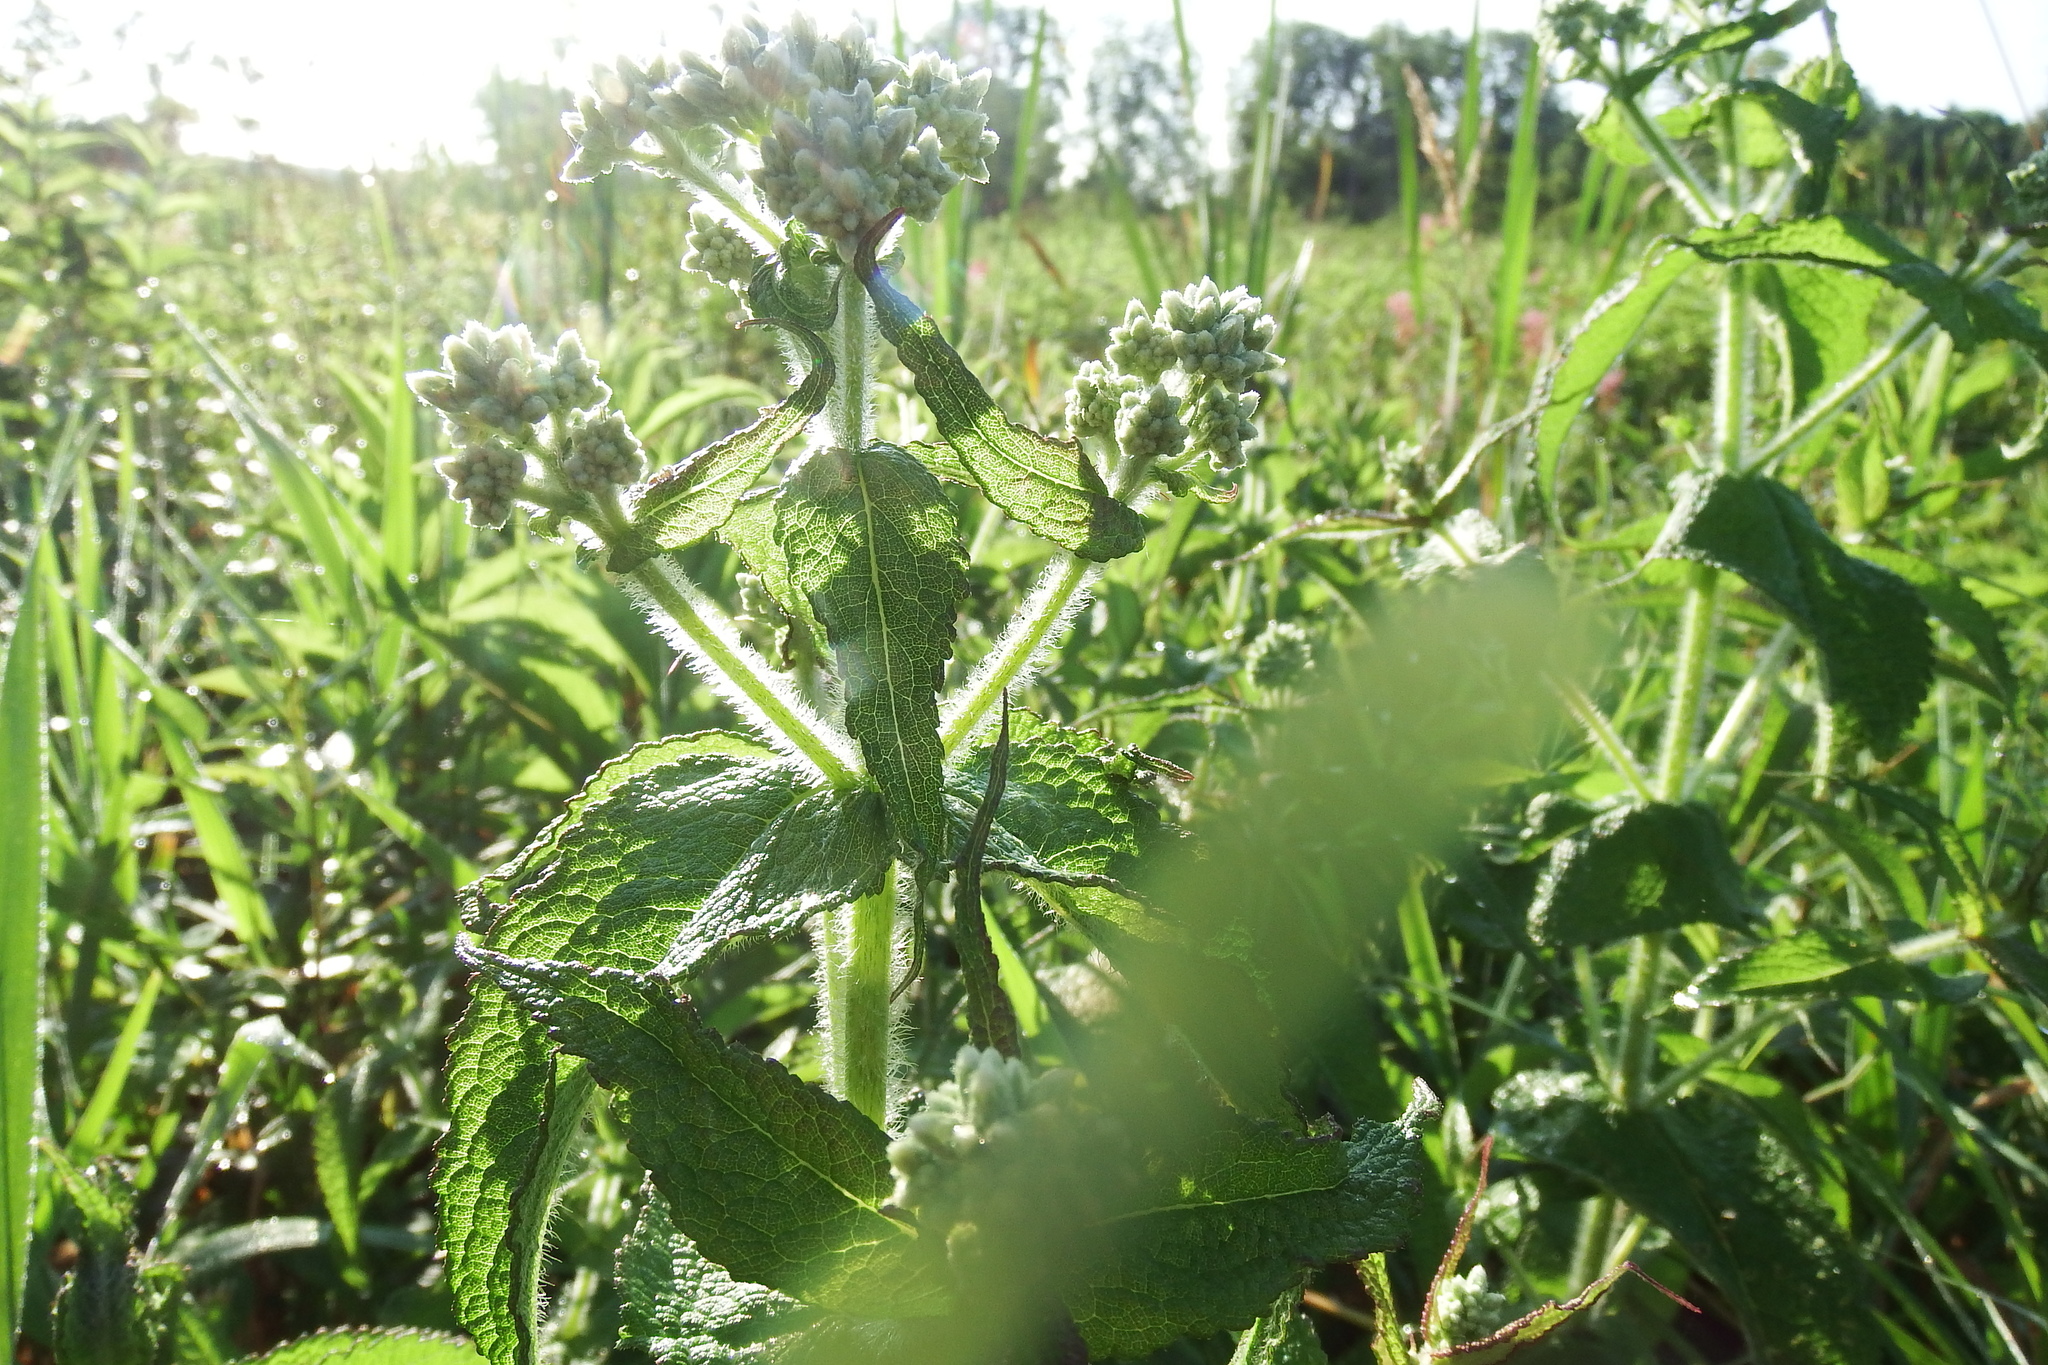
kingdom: Plantae
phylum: Tracheophyta
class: Magnoliopsida
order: Asterales
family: Asteraceae
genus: Eupatorium
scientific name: Eupatorium perfoliatum
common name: Boneset
